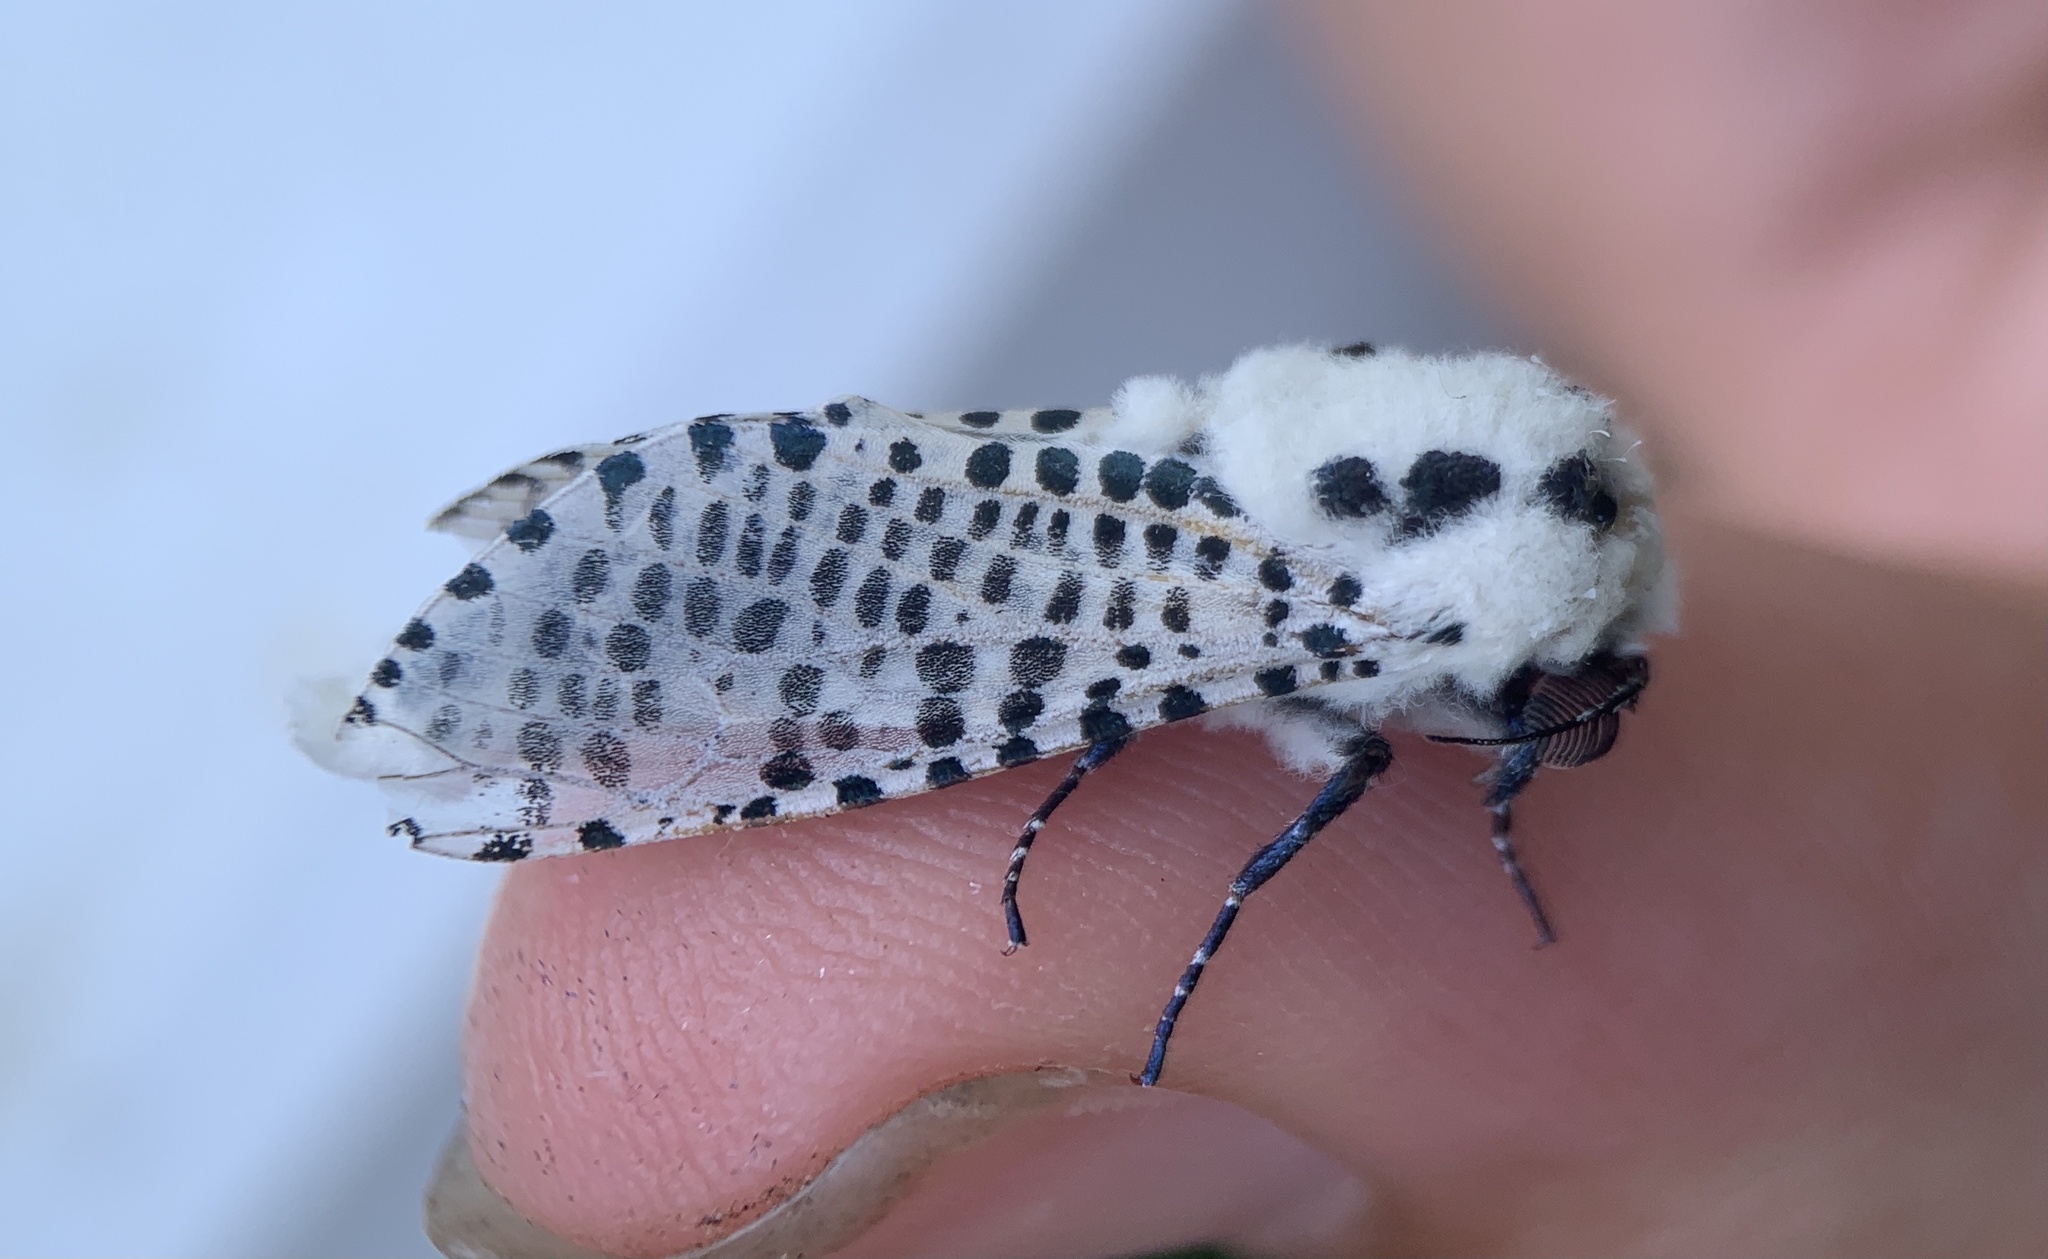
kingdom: Animalia
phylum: Arthropoda
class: Insecta
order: Lepidoptera
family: Cossidae
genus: Zeuzera
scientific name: Zeuzera pyrina
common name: Leopard moth
